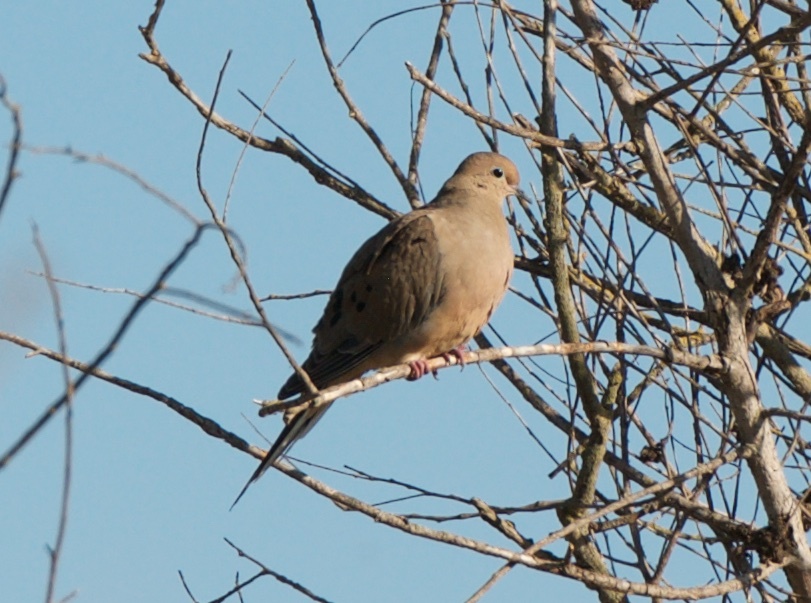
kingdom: Animalia
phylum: Chordata
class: Aves
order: Columbiformes
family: Columbidae
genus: Zenaida
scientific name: Zenaida macroura
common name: Mourning dove
